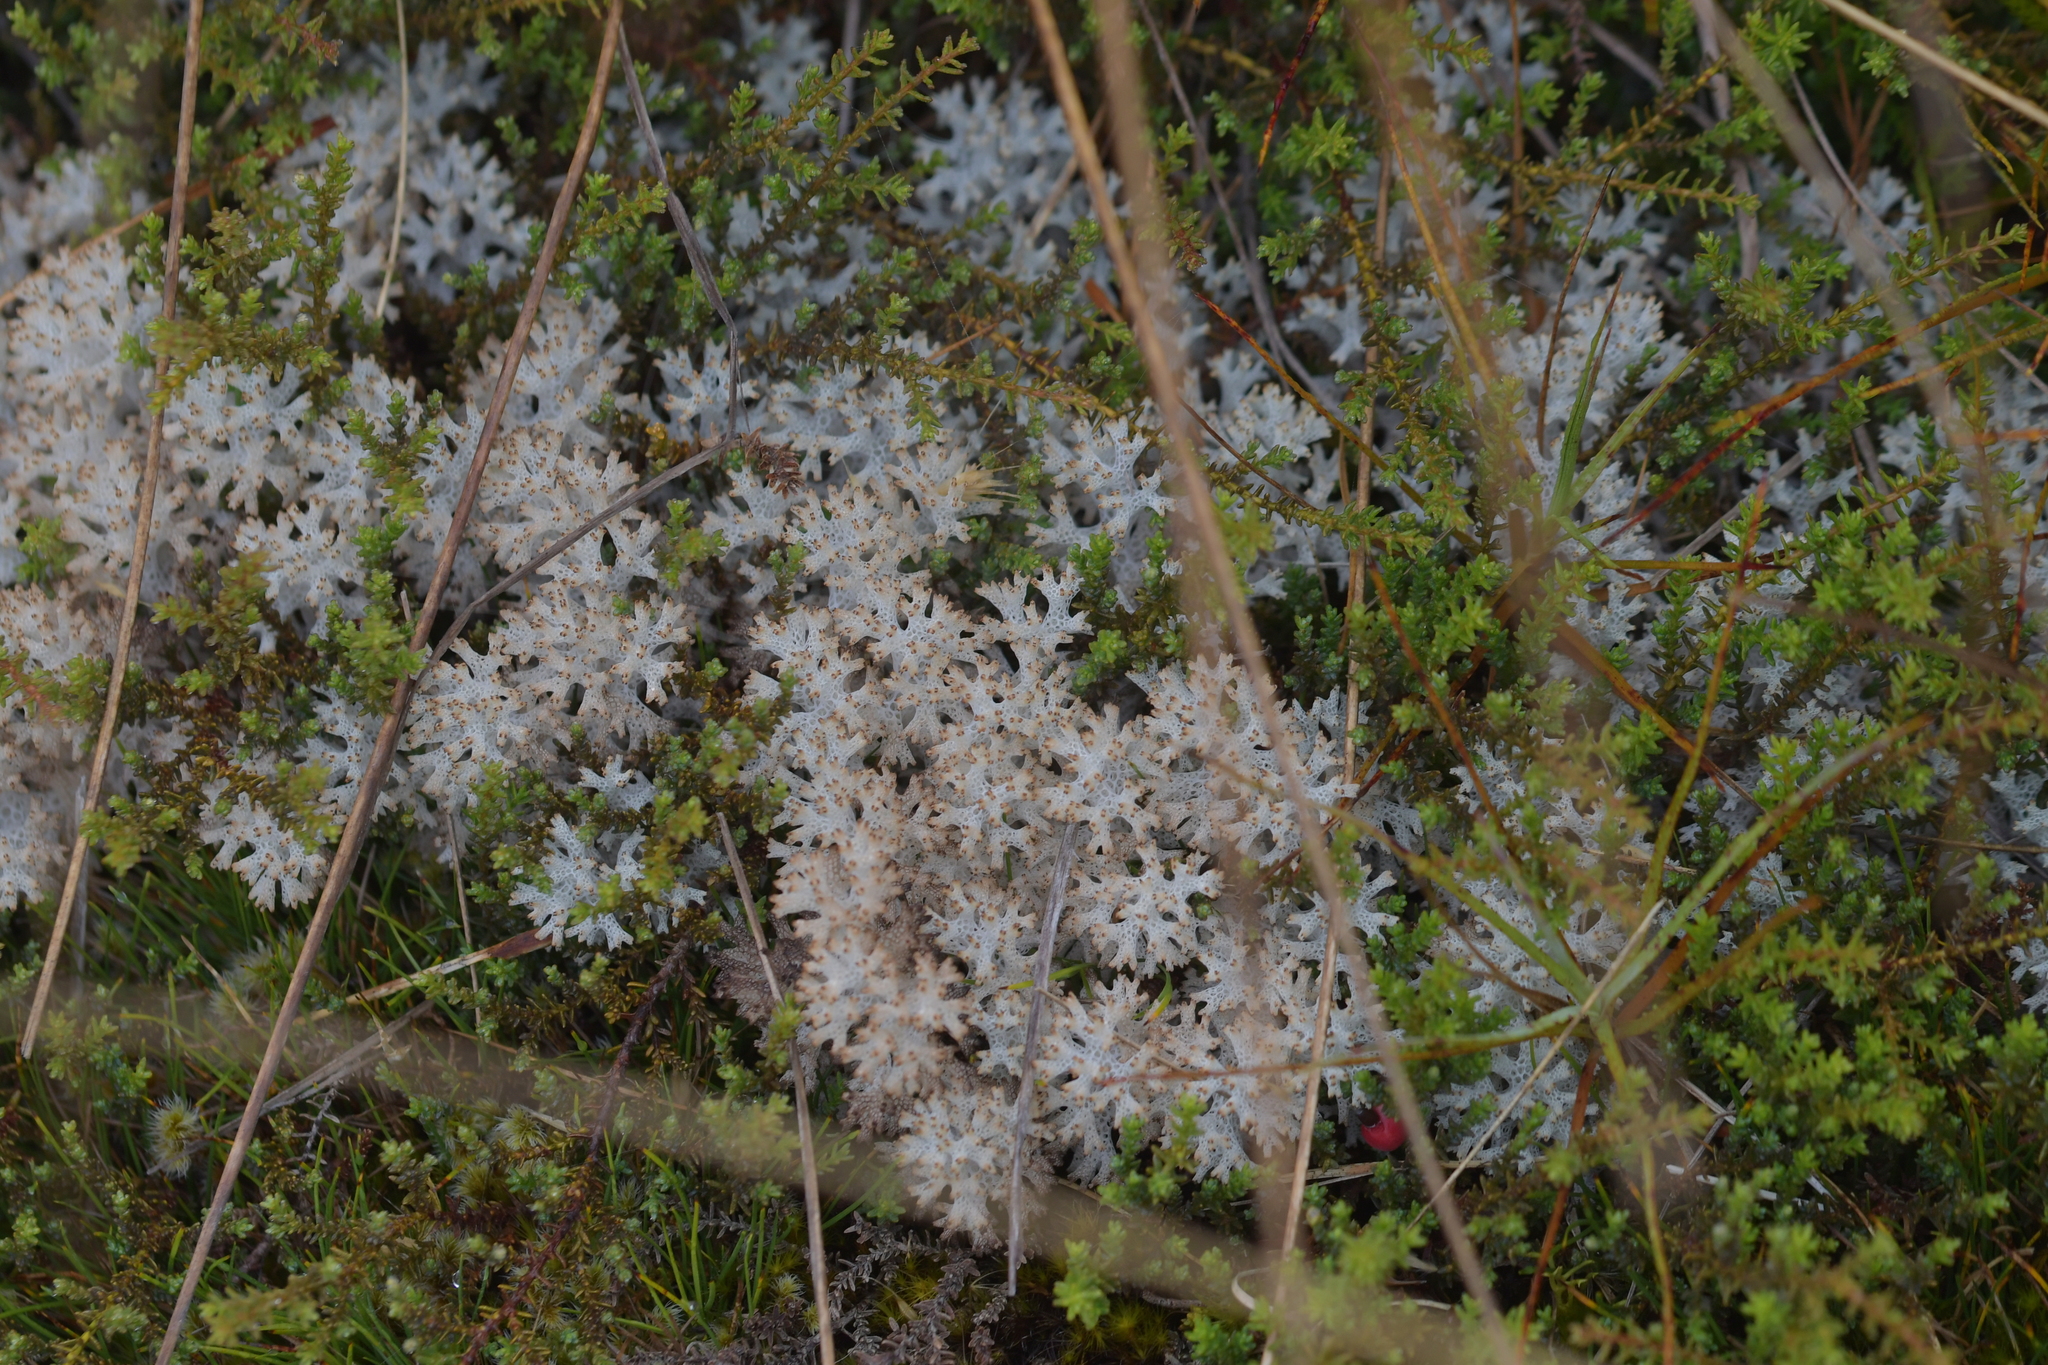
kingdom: Fungi
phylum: Ascomycota
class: Lecanoromycetes
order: Lecanorales
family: Cladoniaceae
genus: Pulchrocladia
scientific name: Pulchrocladia retipora
